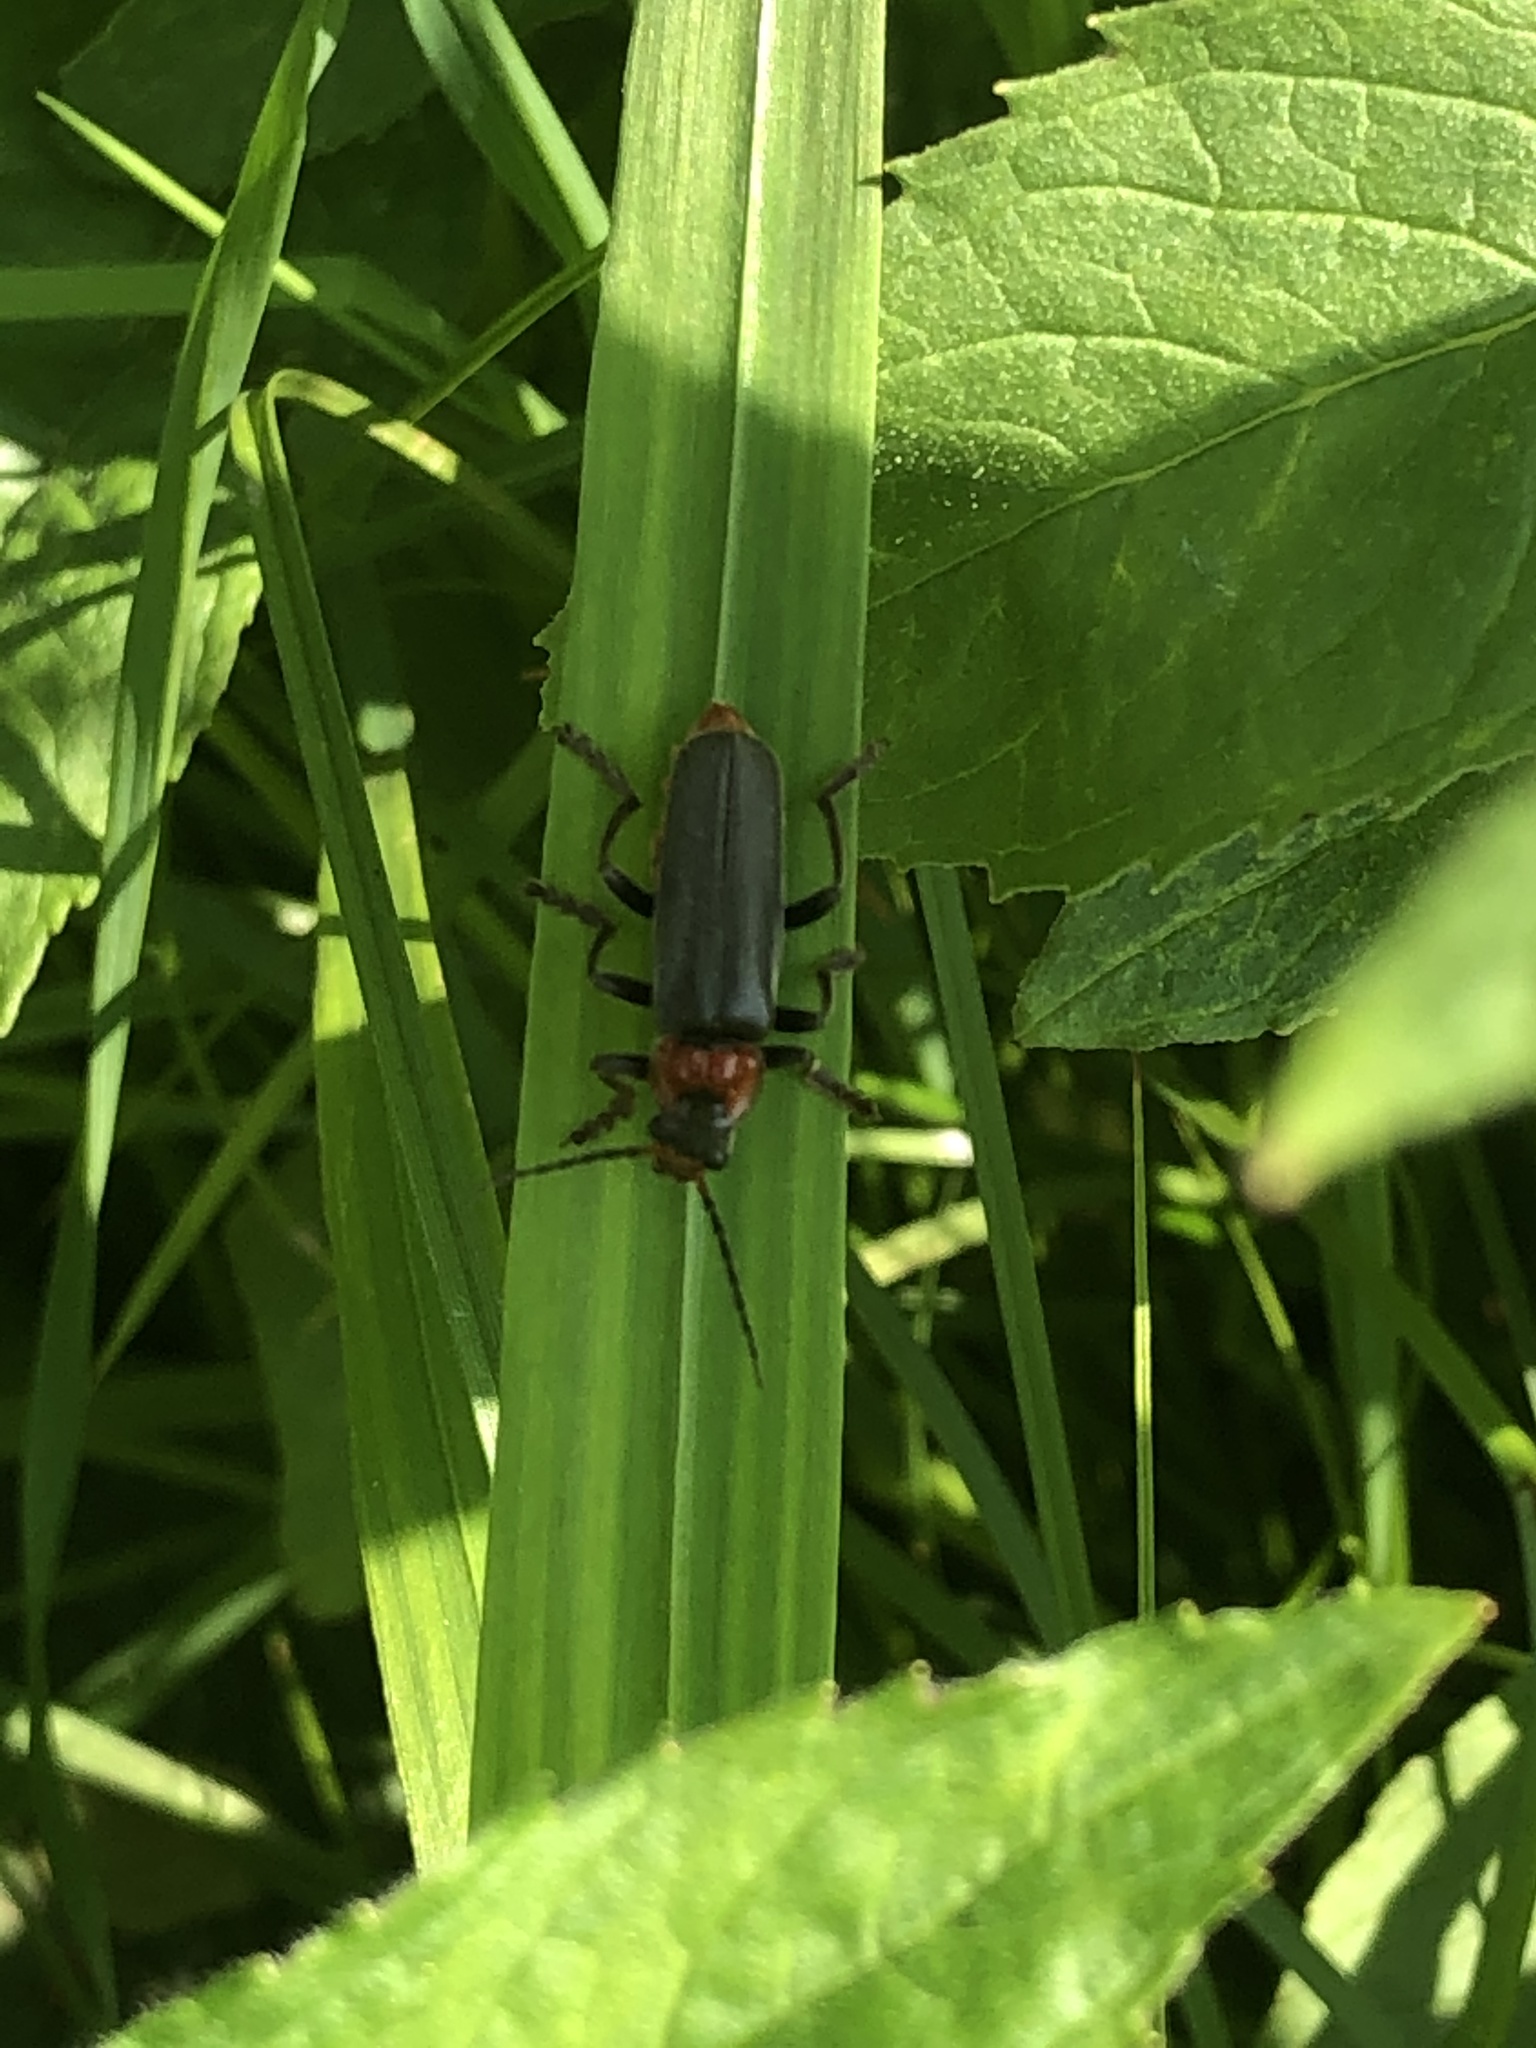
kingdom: Animalia
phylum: Arthropoda
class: Insecta
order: Coleoptera
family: Cantharidae
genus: Cantharis
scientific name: Cantharis fusca
